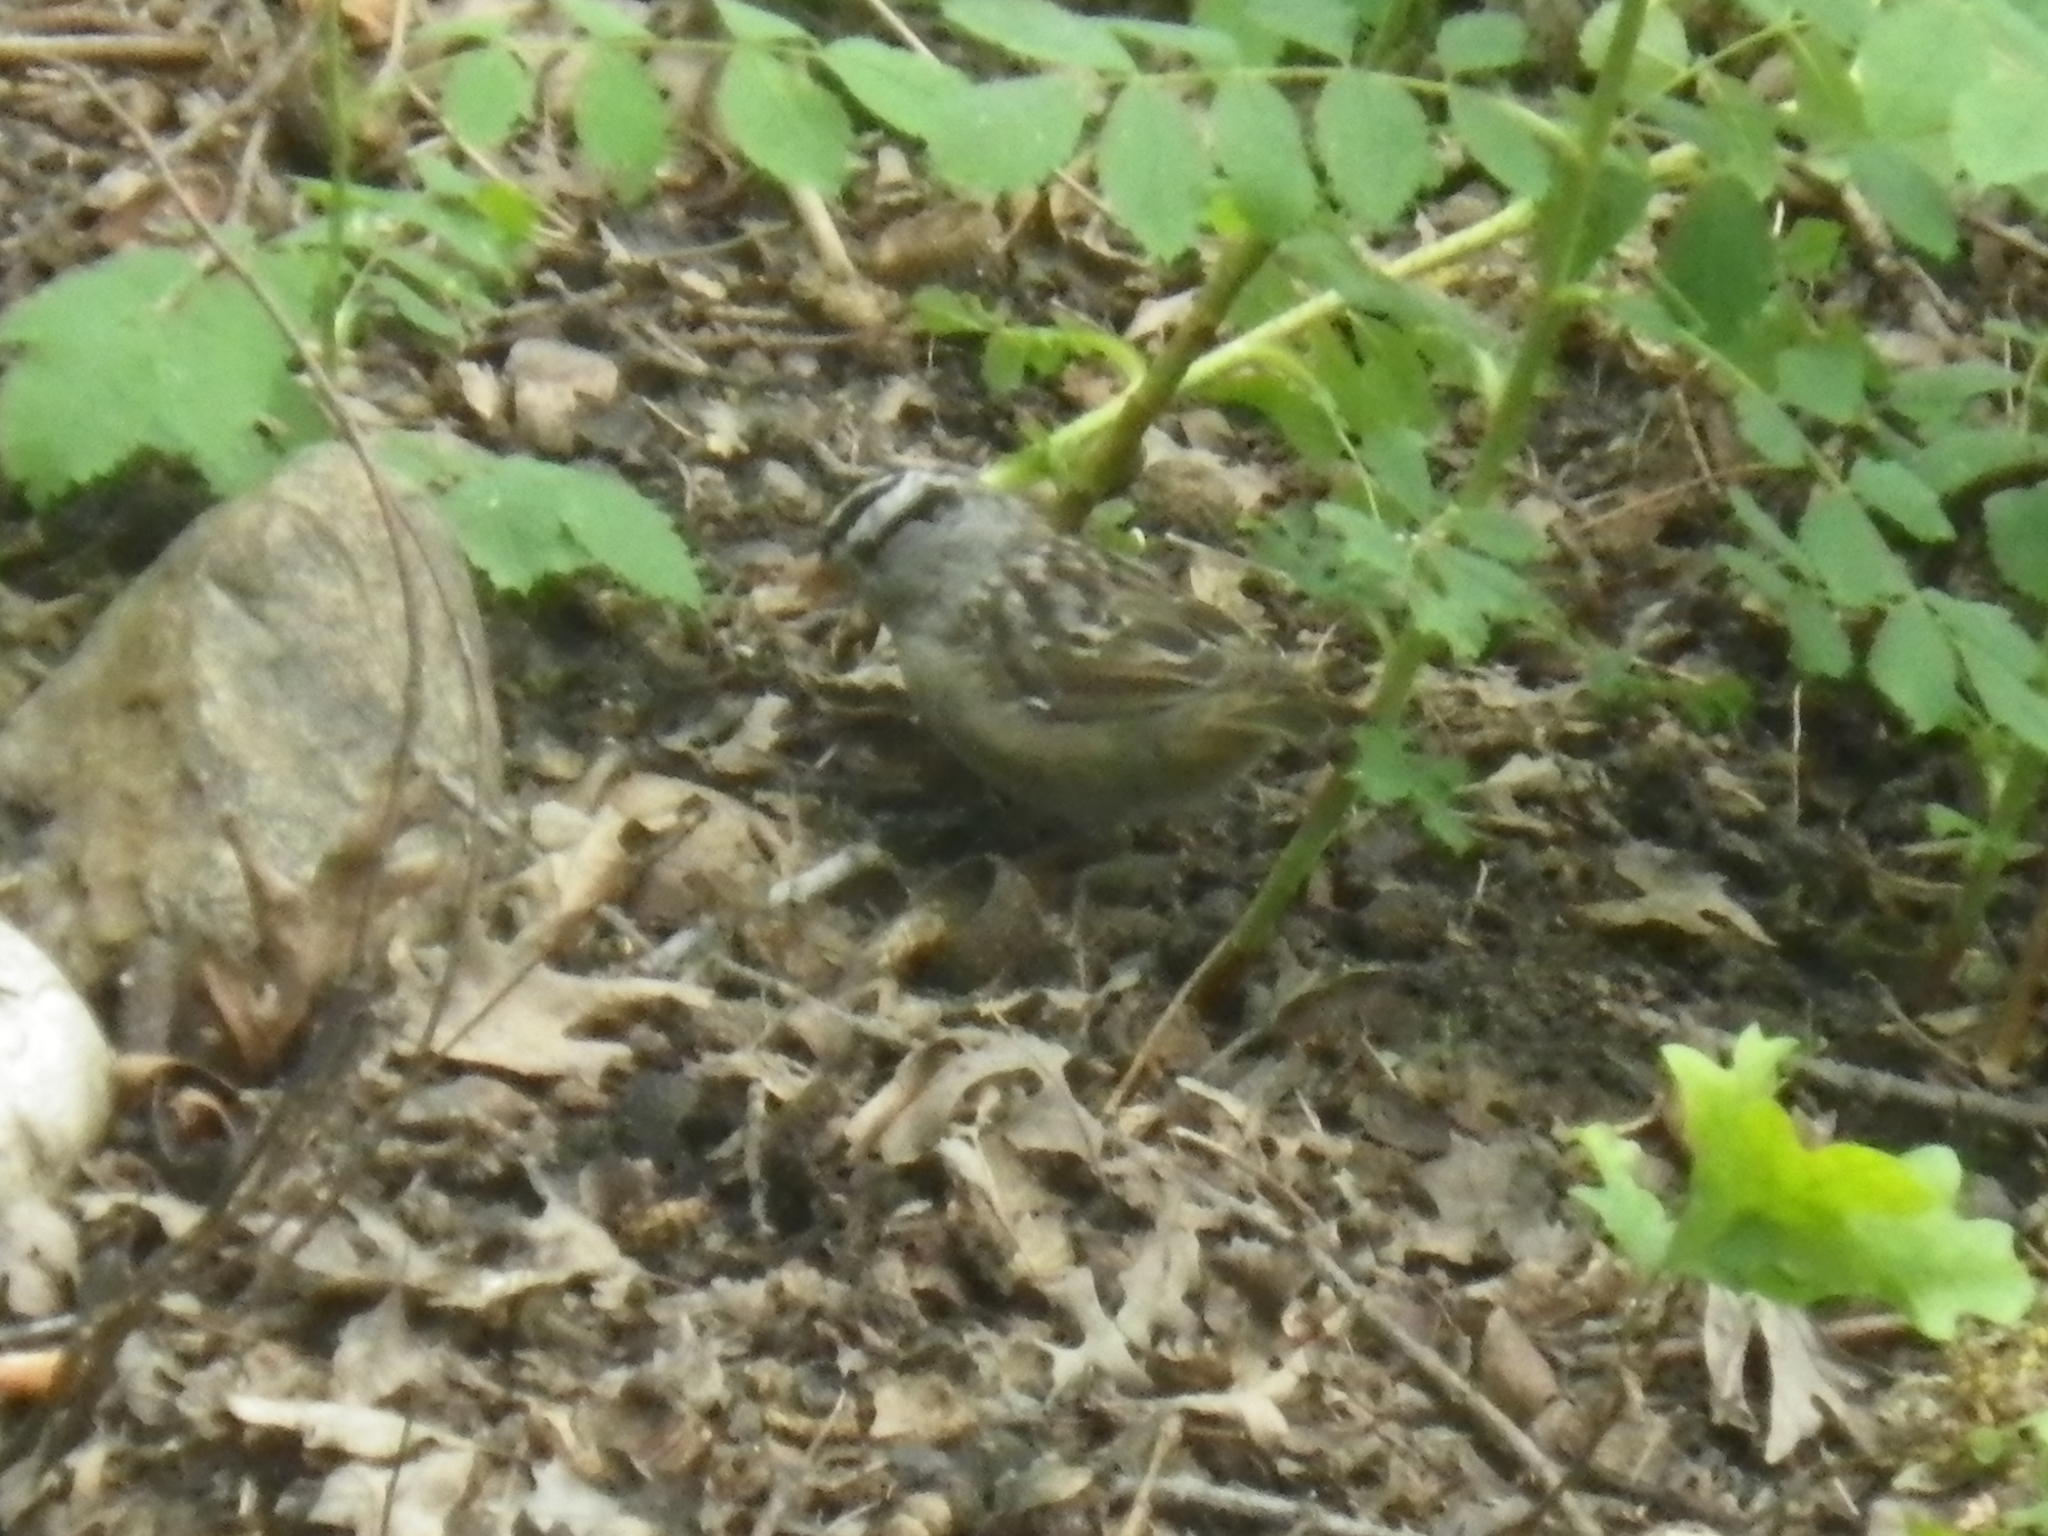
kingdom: Animalia
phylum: Chordata
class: Aves
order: Passeriformes
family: Passerellidae
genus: Zonotrichia
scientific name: Zonotrichia leucophrys
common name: White-crowned sparrow
